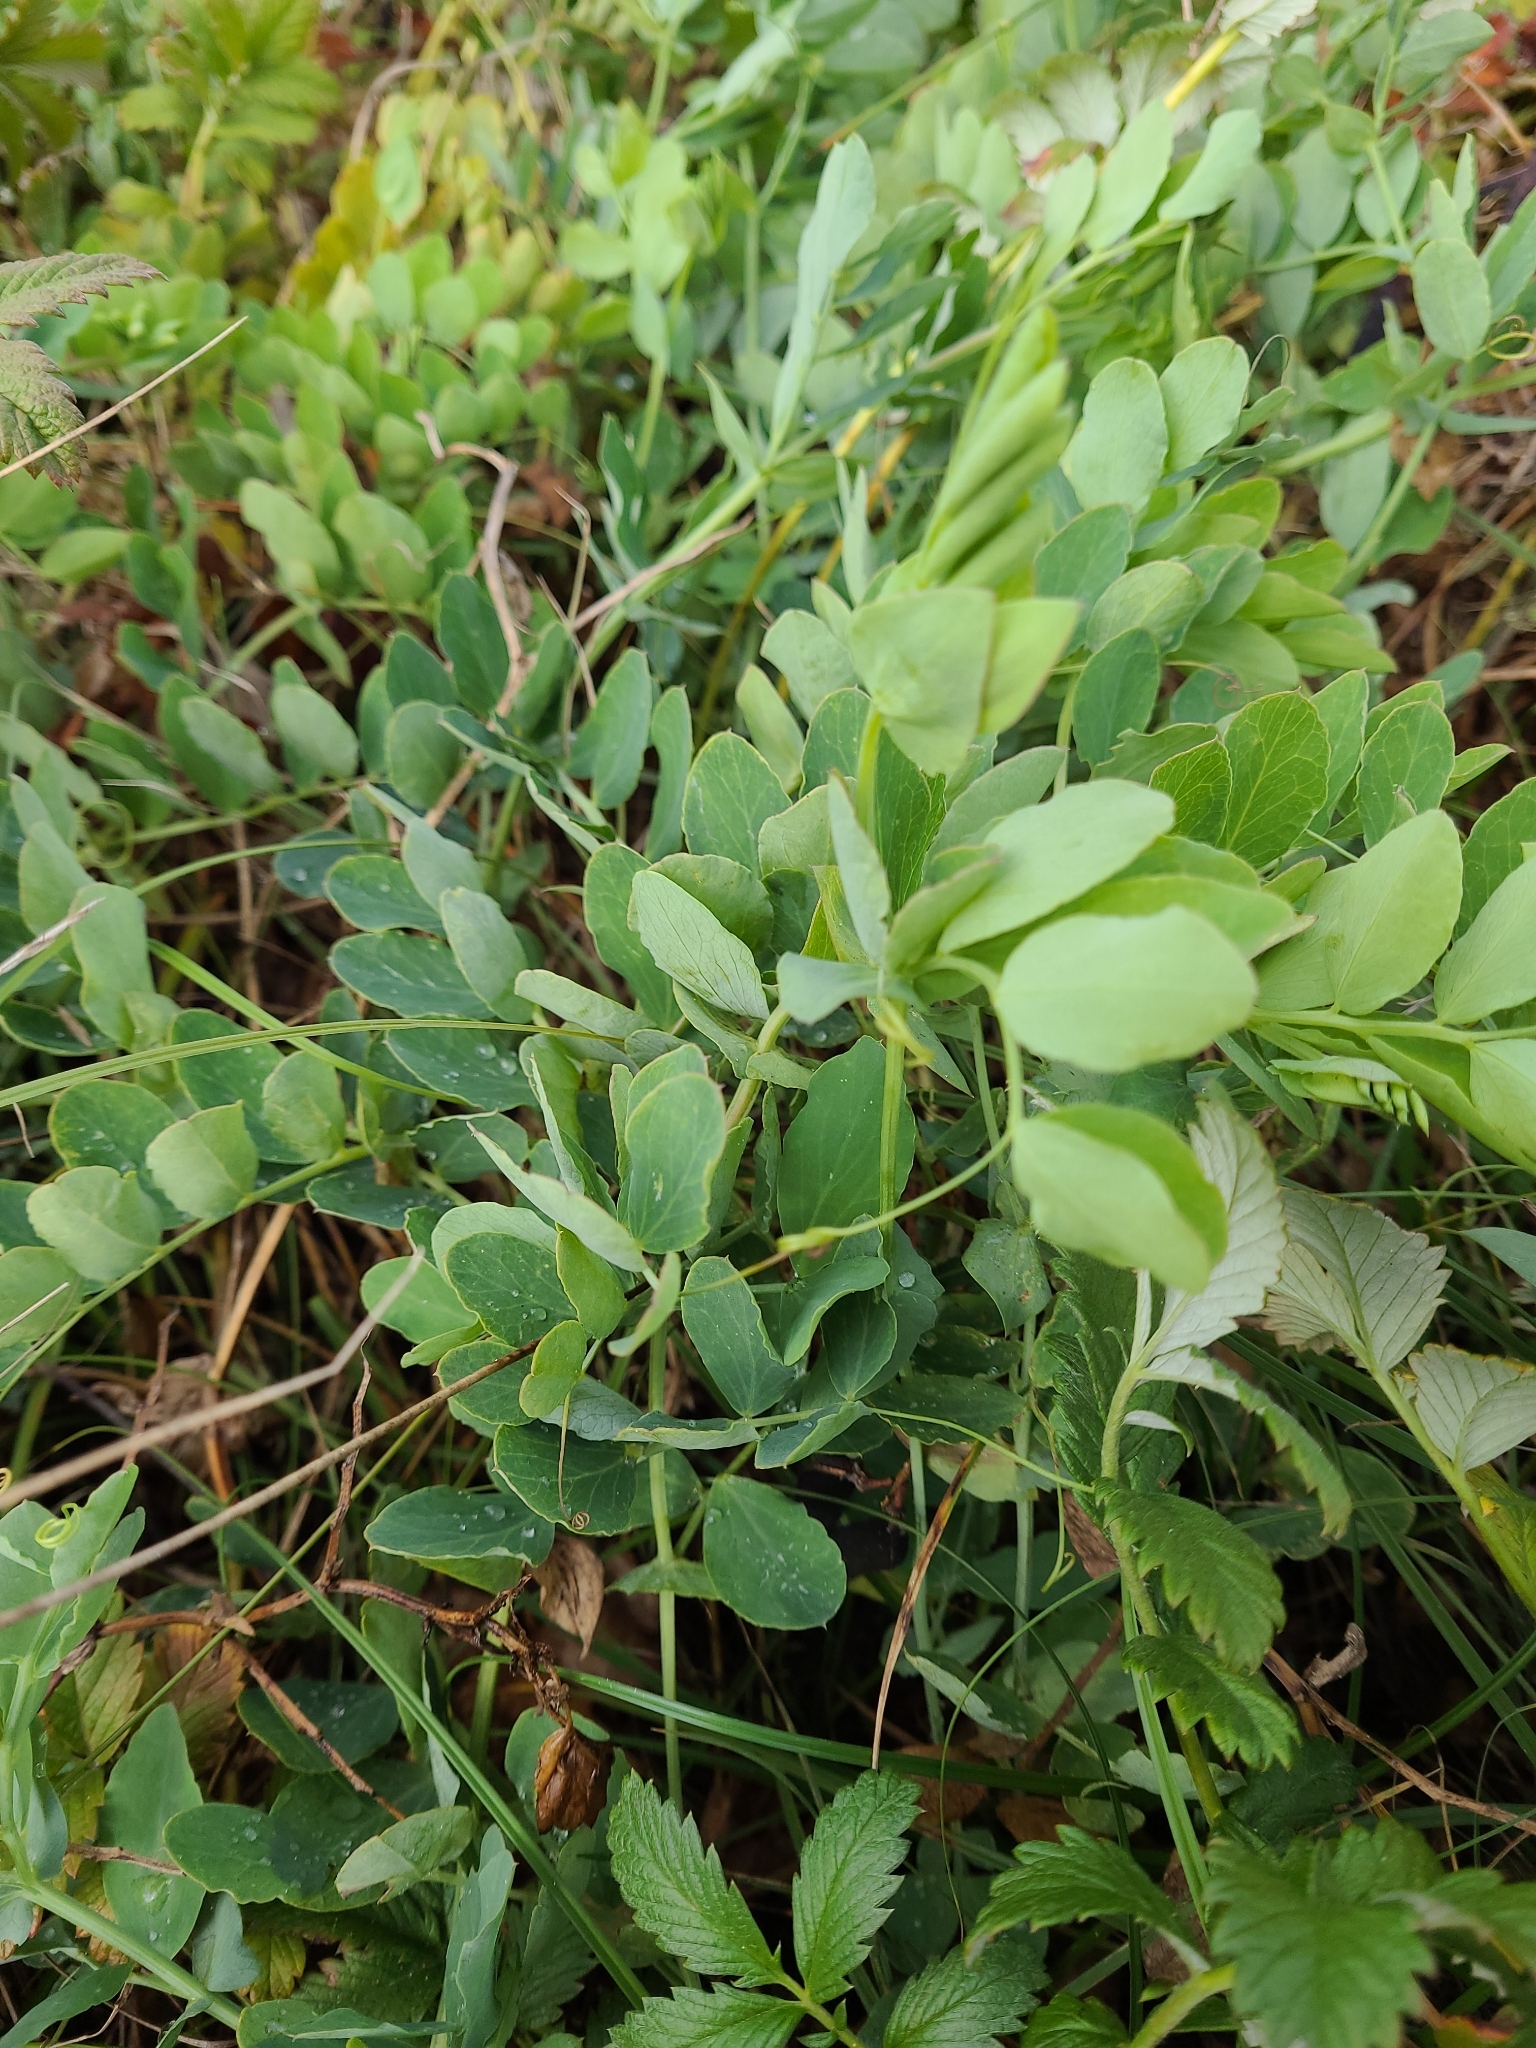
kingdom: Plantae
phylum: Tracheophyta
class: Magnoliopsida
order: Fabales
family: Fabaceae
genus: Lathyrus
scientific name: Lathyrus japonicus
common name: Sea pea
